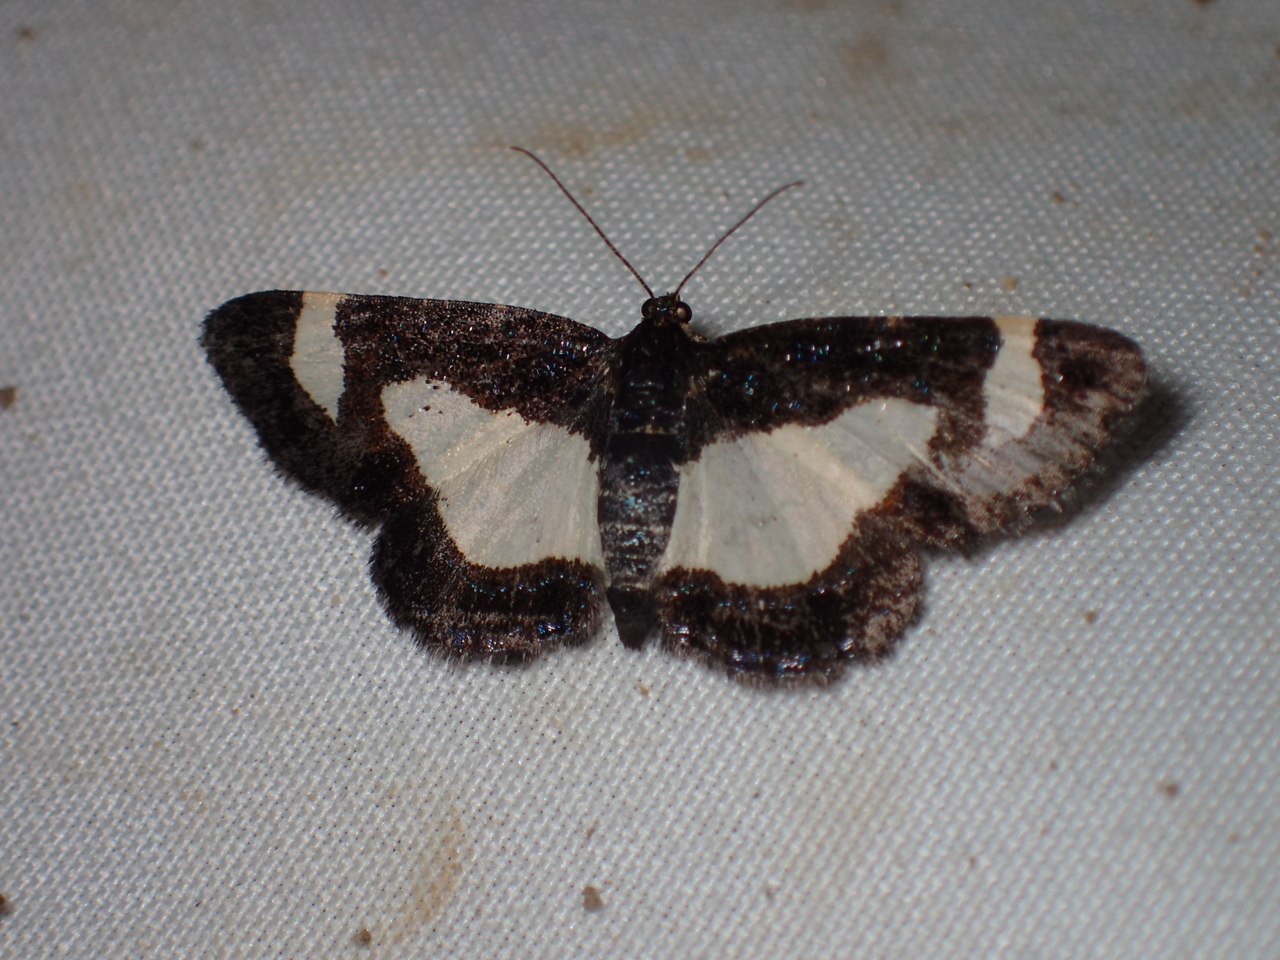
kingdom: Animalia
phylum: Arthropoda
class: Insecta
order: Lepidoptera
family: Geometridae
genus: Heliomata
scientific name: Heliomata cycladata
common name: Common spring moth
